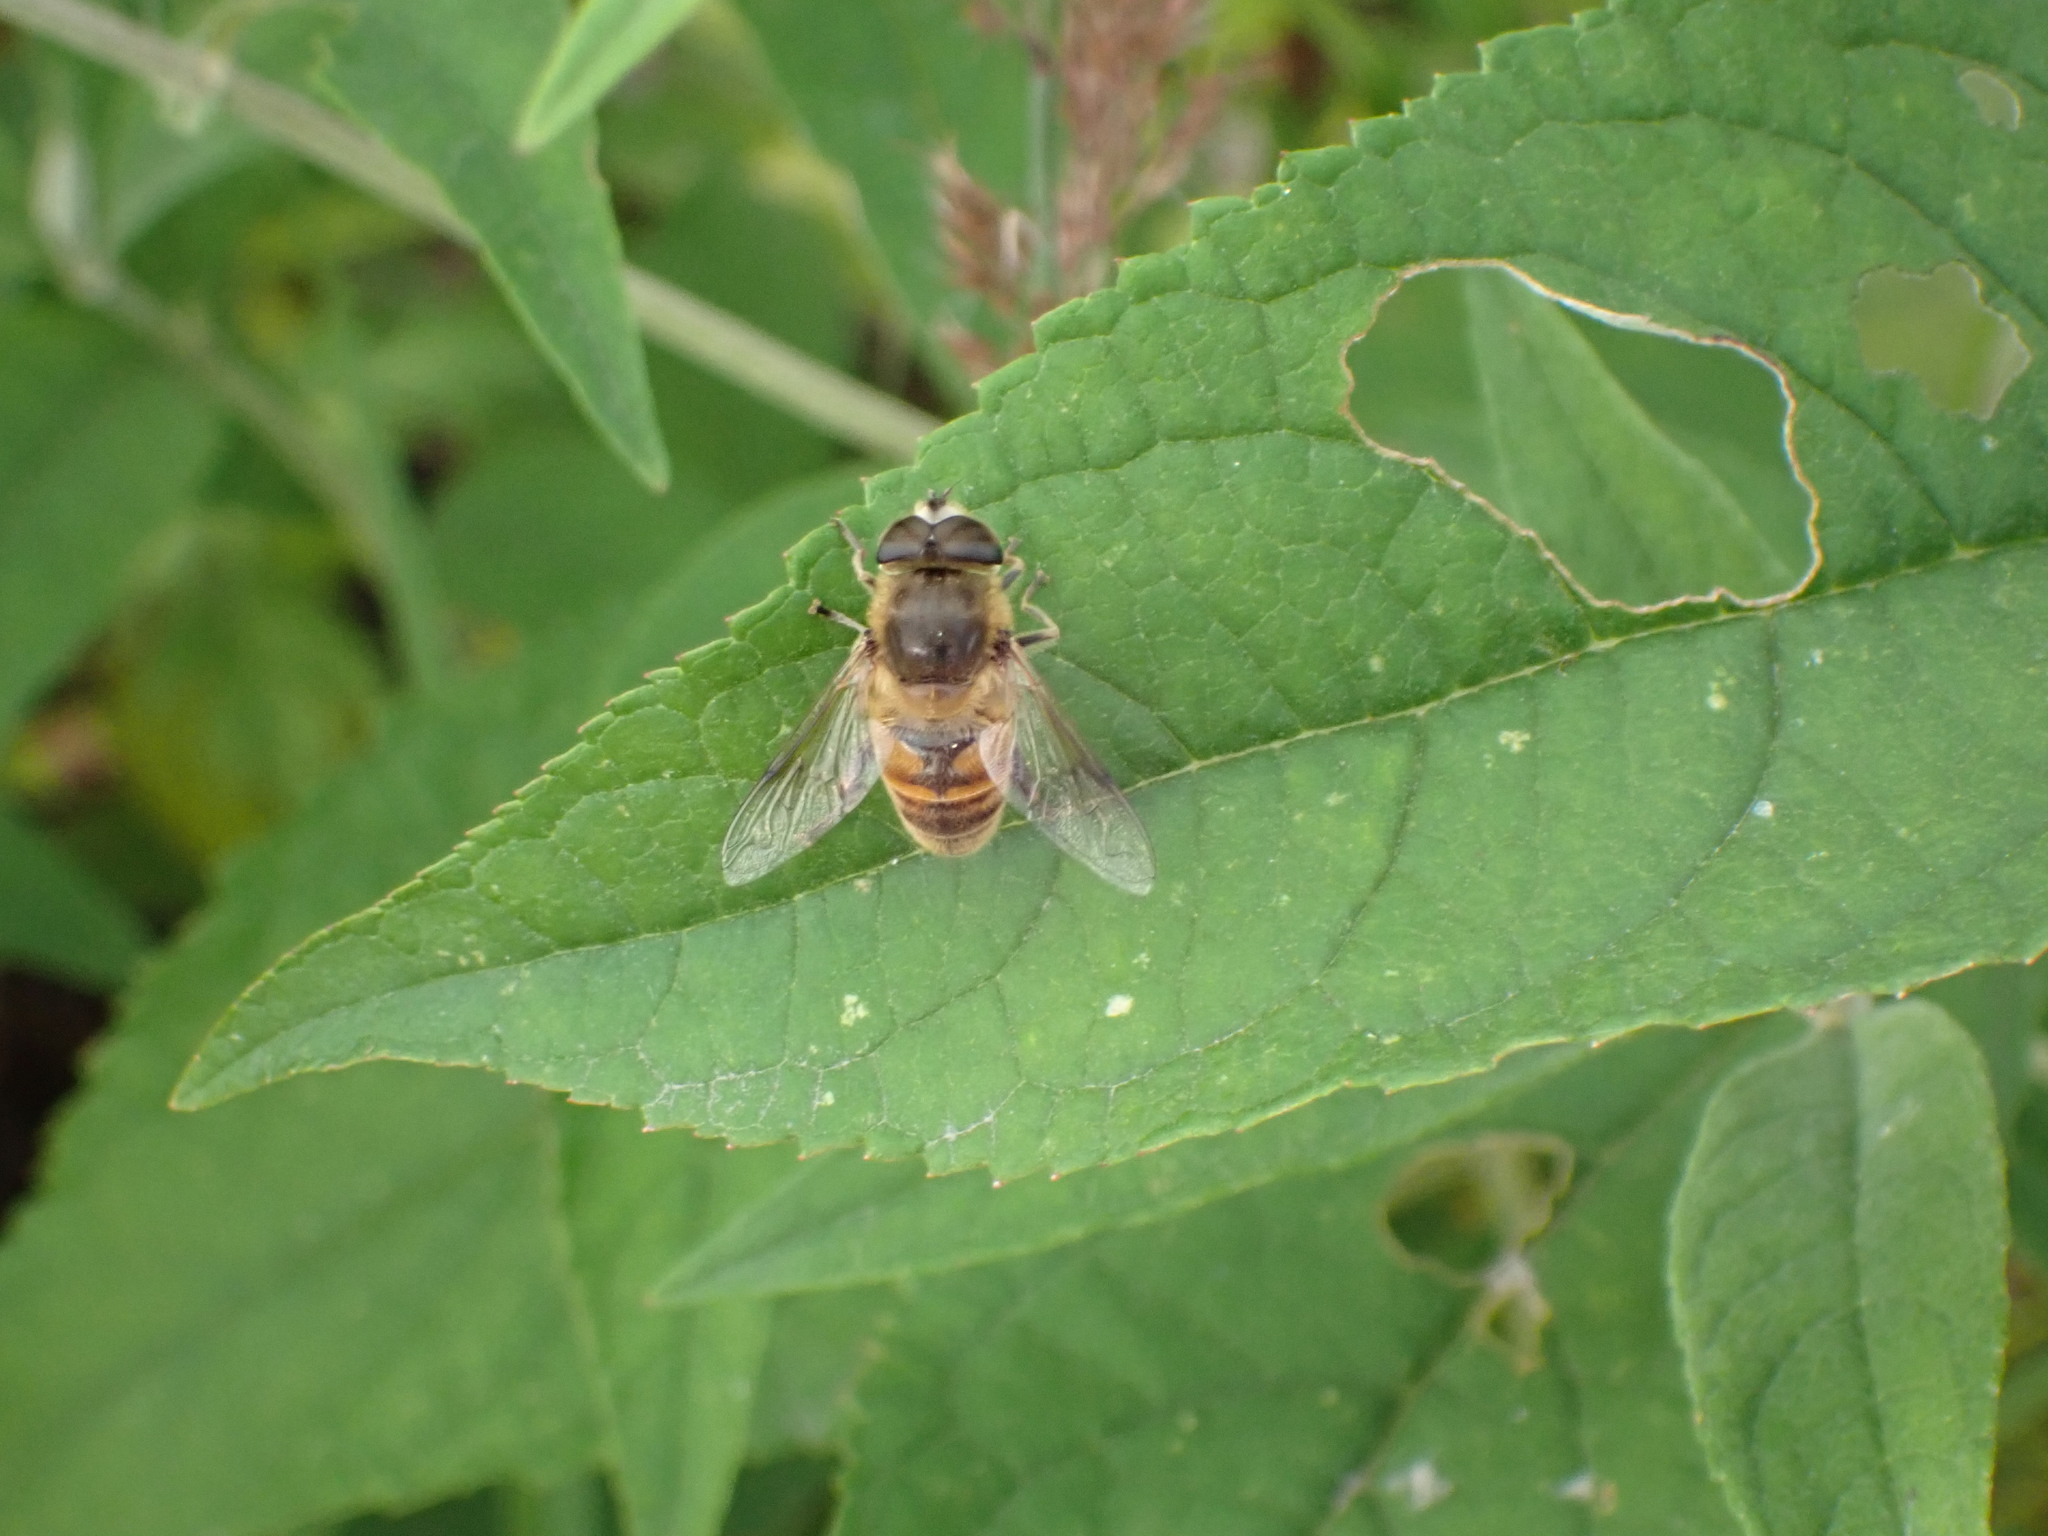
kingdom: Animalia
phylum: Arthropoda
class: Insecta
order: Diptera
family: Syrphidae
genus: Eristalis
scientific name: Eristalis tenax
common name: Drone fly
